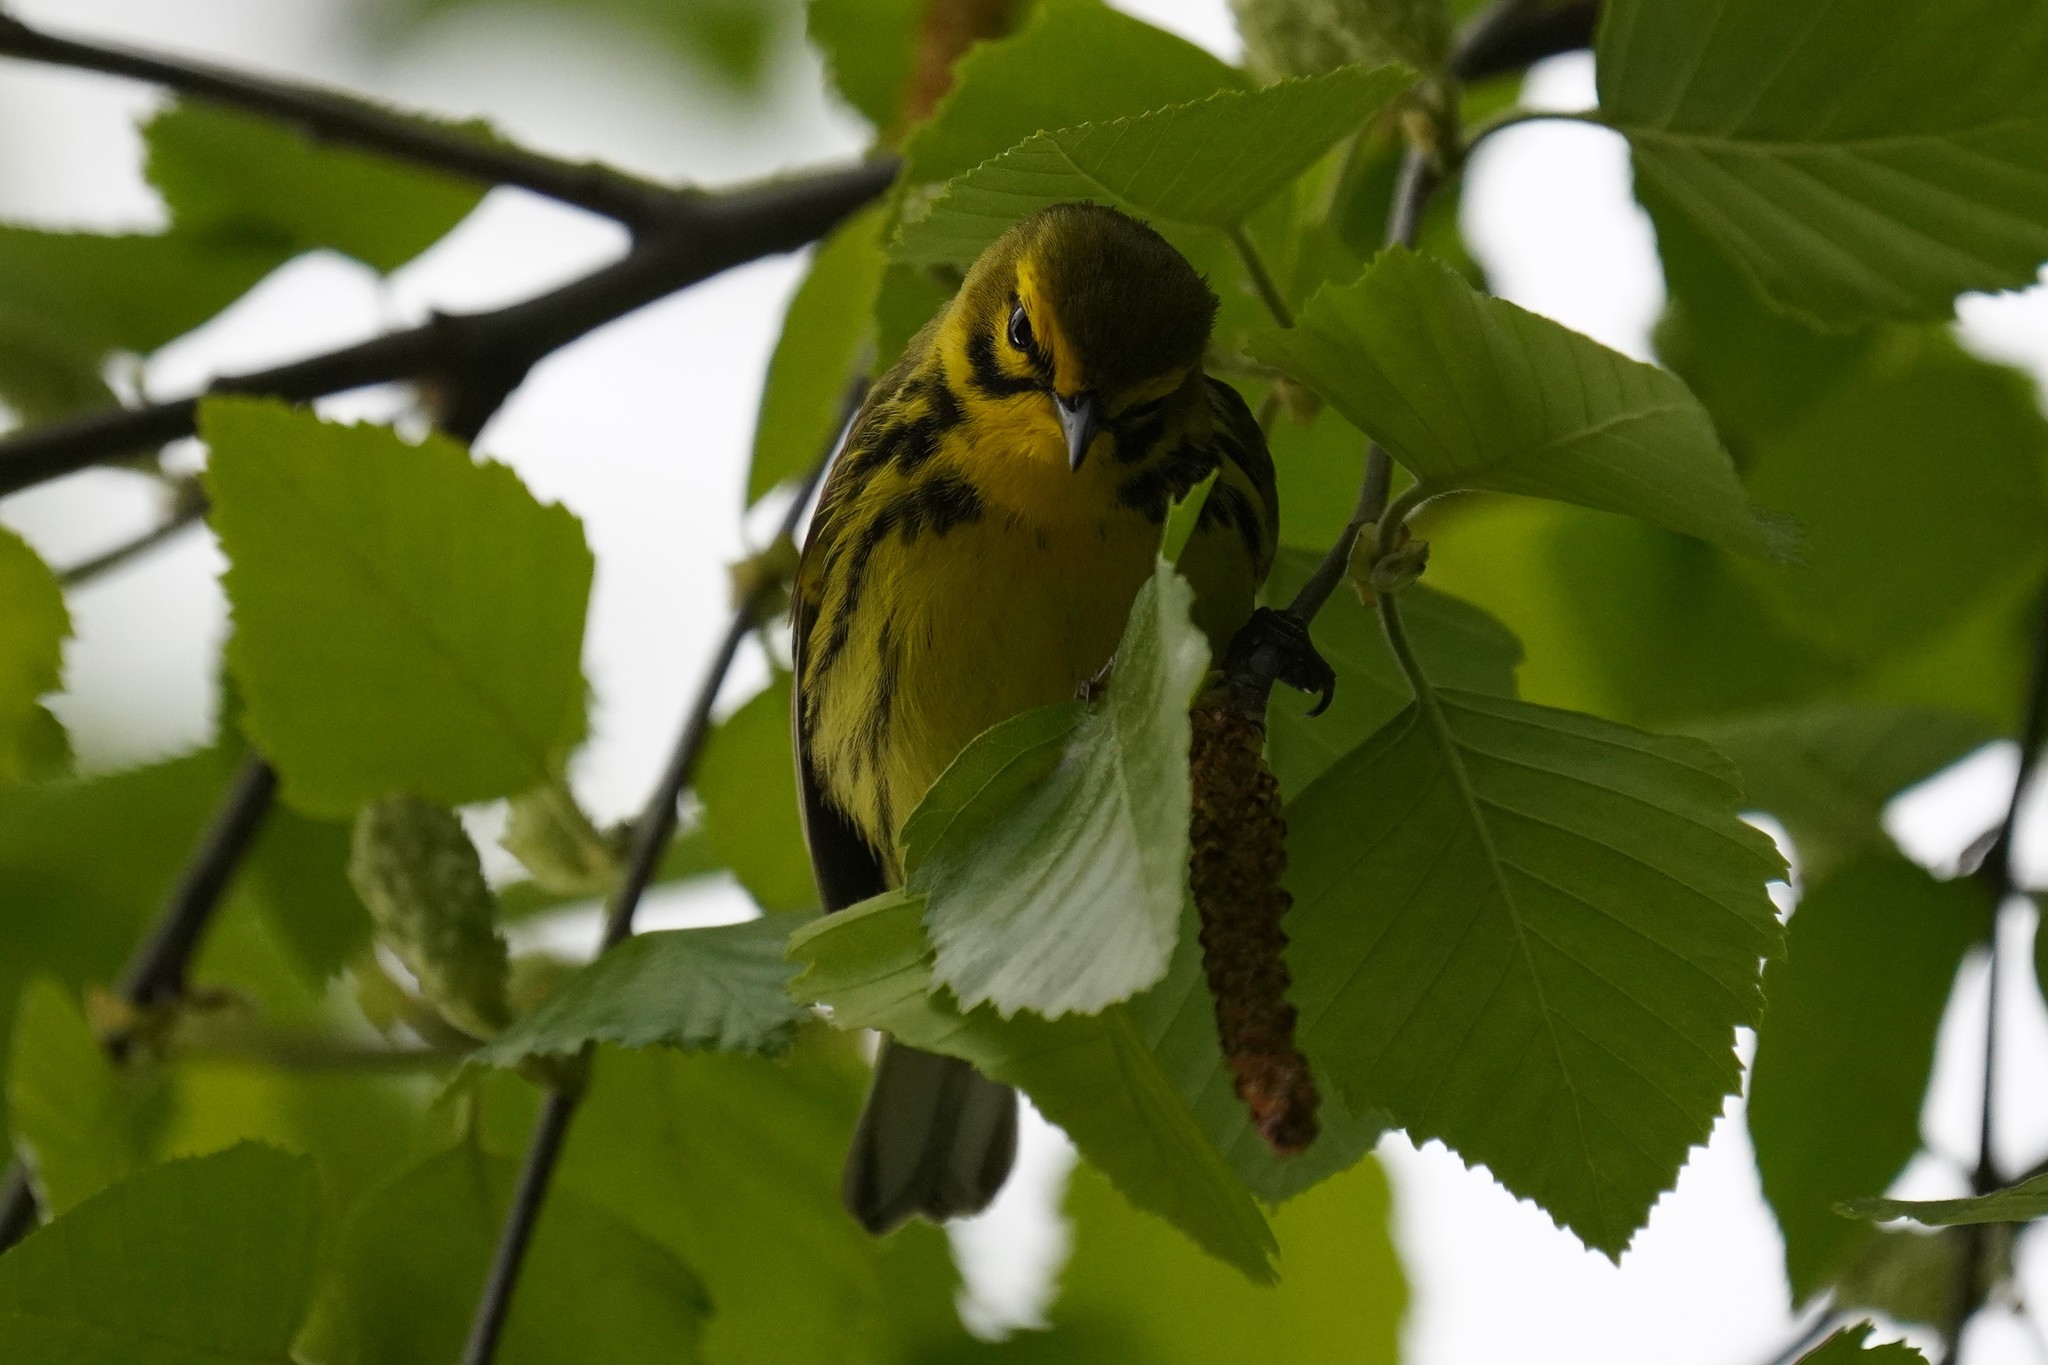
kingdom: Animalia
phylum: Chordata
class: Aves
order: Passeriformes
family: Parulidae
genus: Setophaga
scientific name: Setophaga discolor
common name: Prairie warbler
